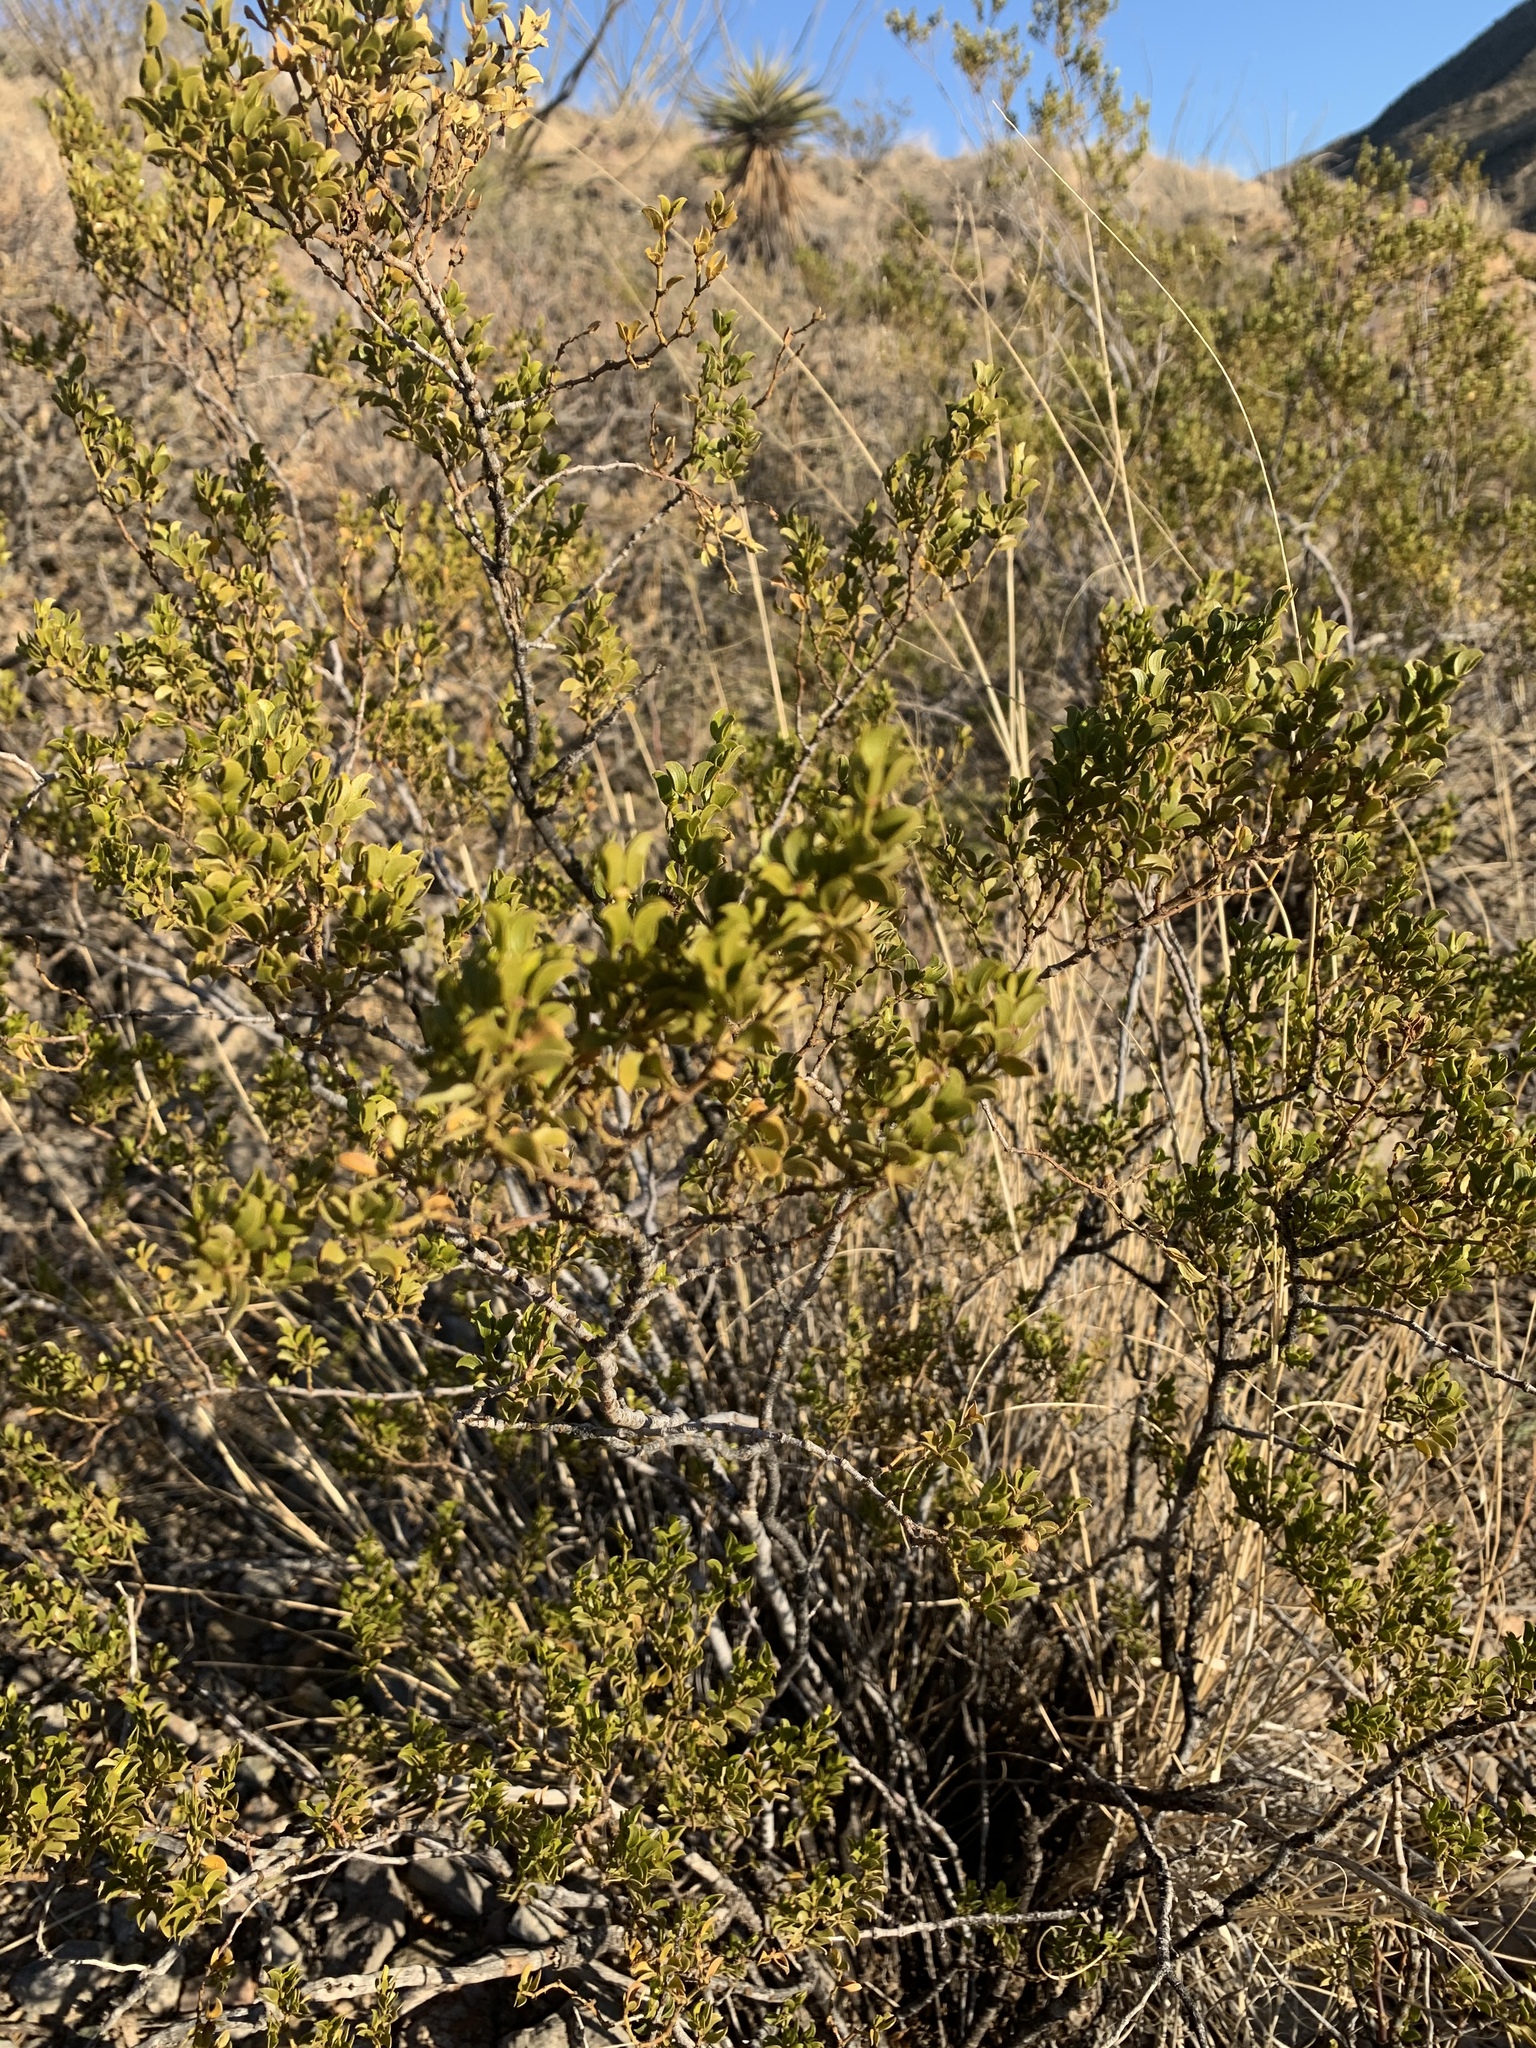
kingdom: Plantae
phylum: Tracheophyta
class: Magnoliopsida
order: Zygophyllales
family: Zygophyllaceae
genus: Larrea
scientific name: Larrea tridentata
